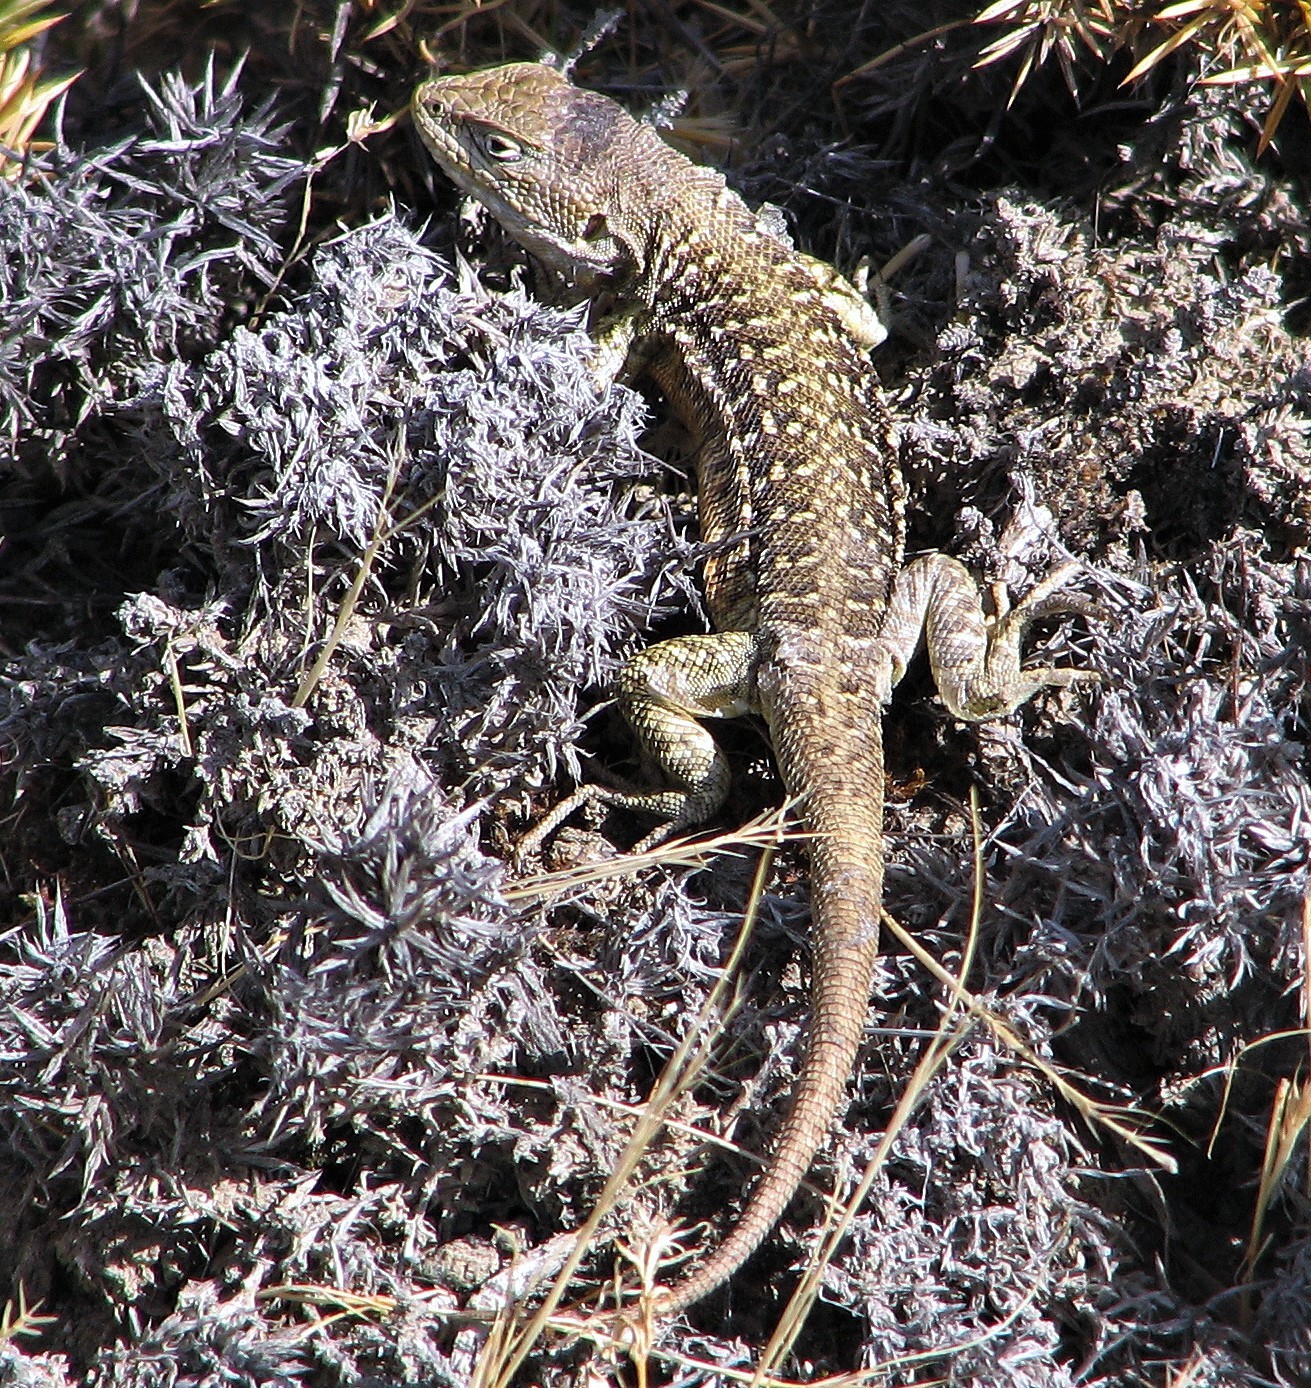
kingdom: Animalia
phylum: Chordata
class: Squamata
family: Liolaemidae
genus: Liolaemus
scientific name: Liolaemus kingii
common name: King's tree iguana
